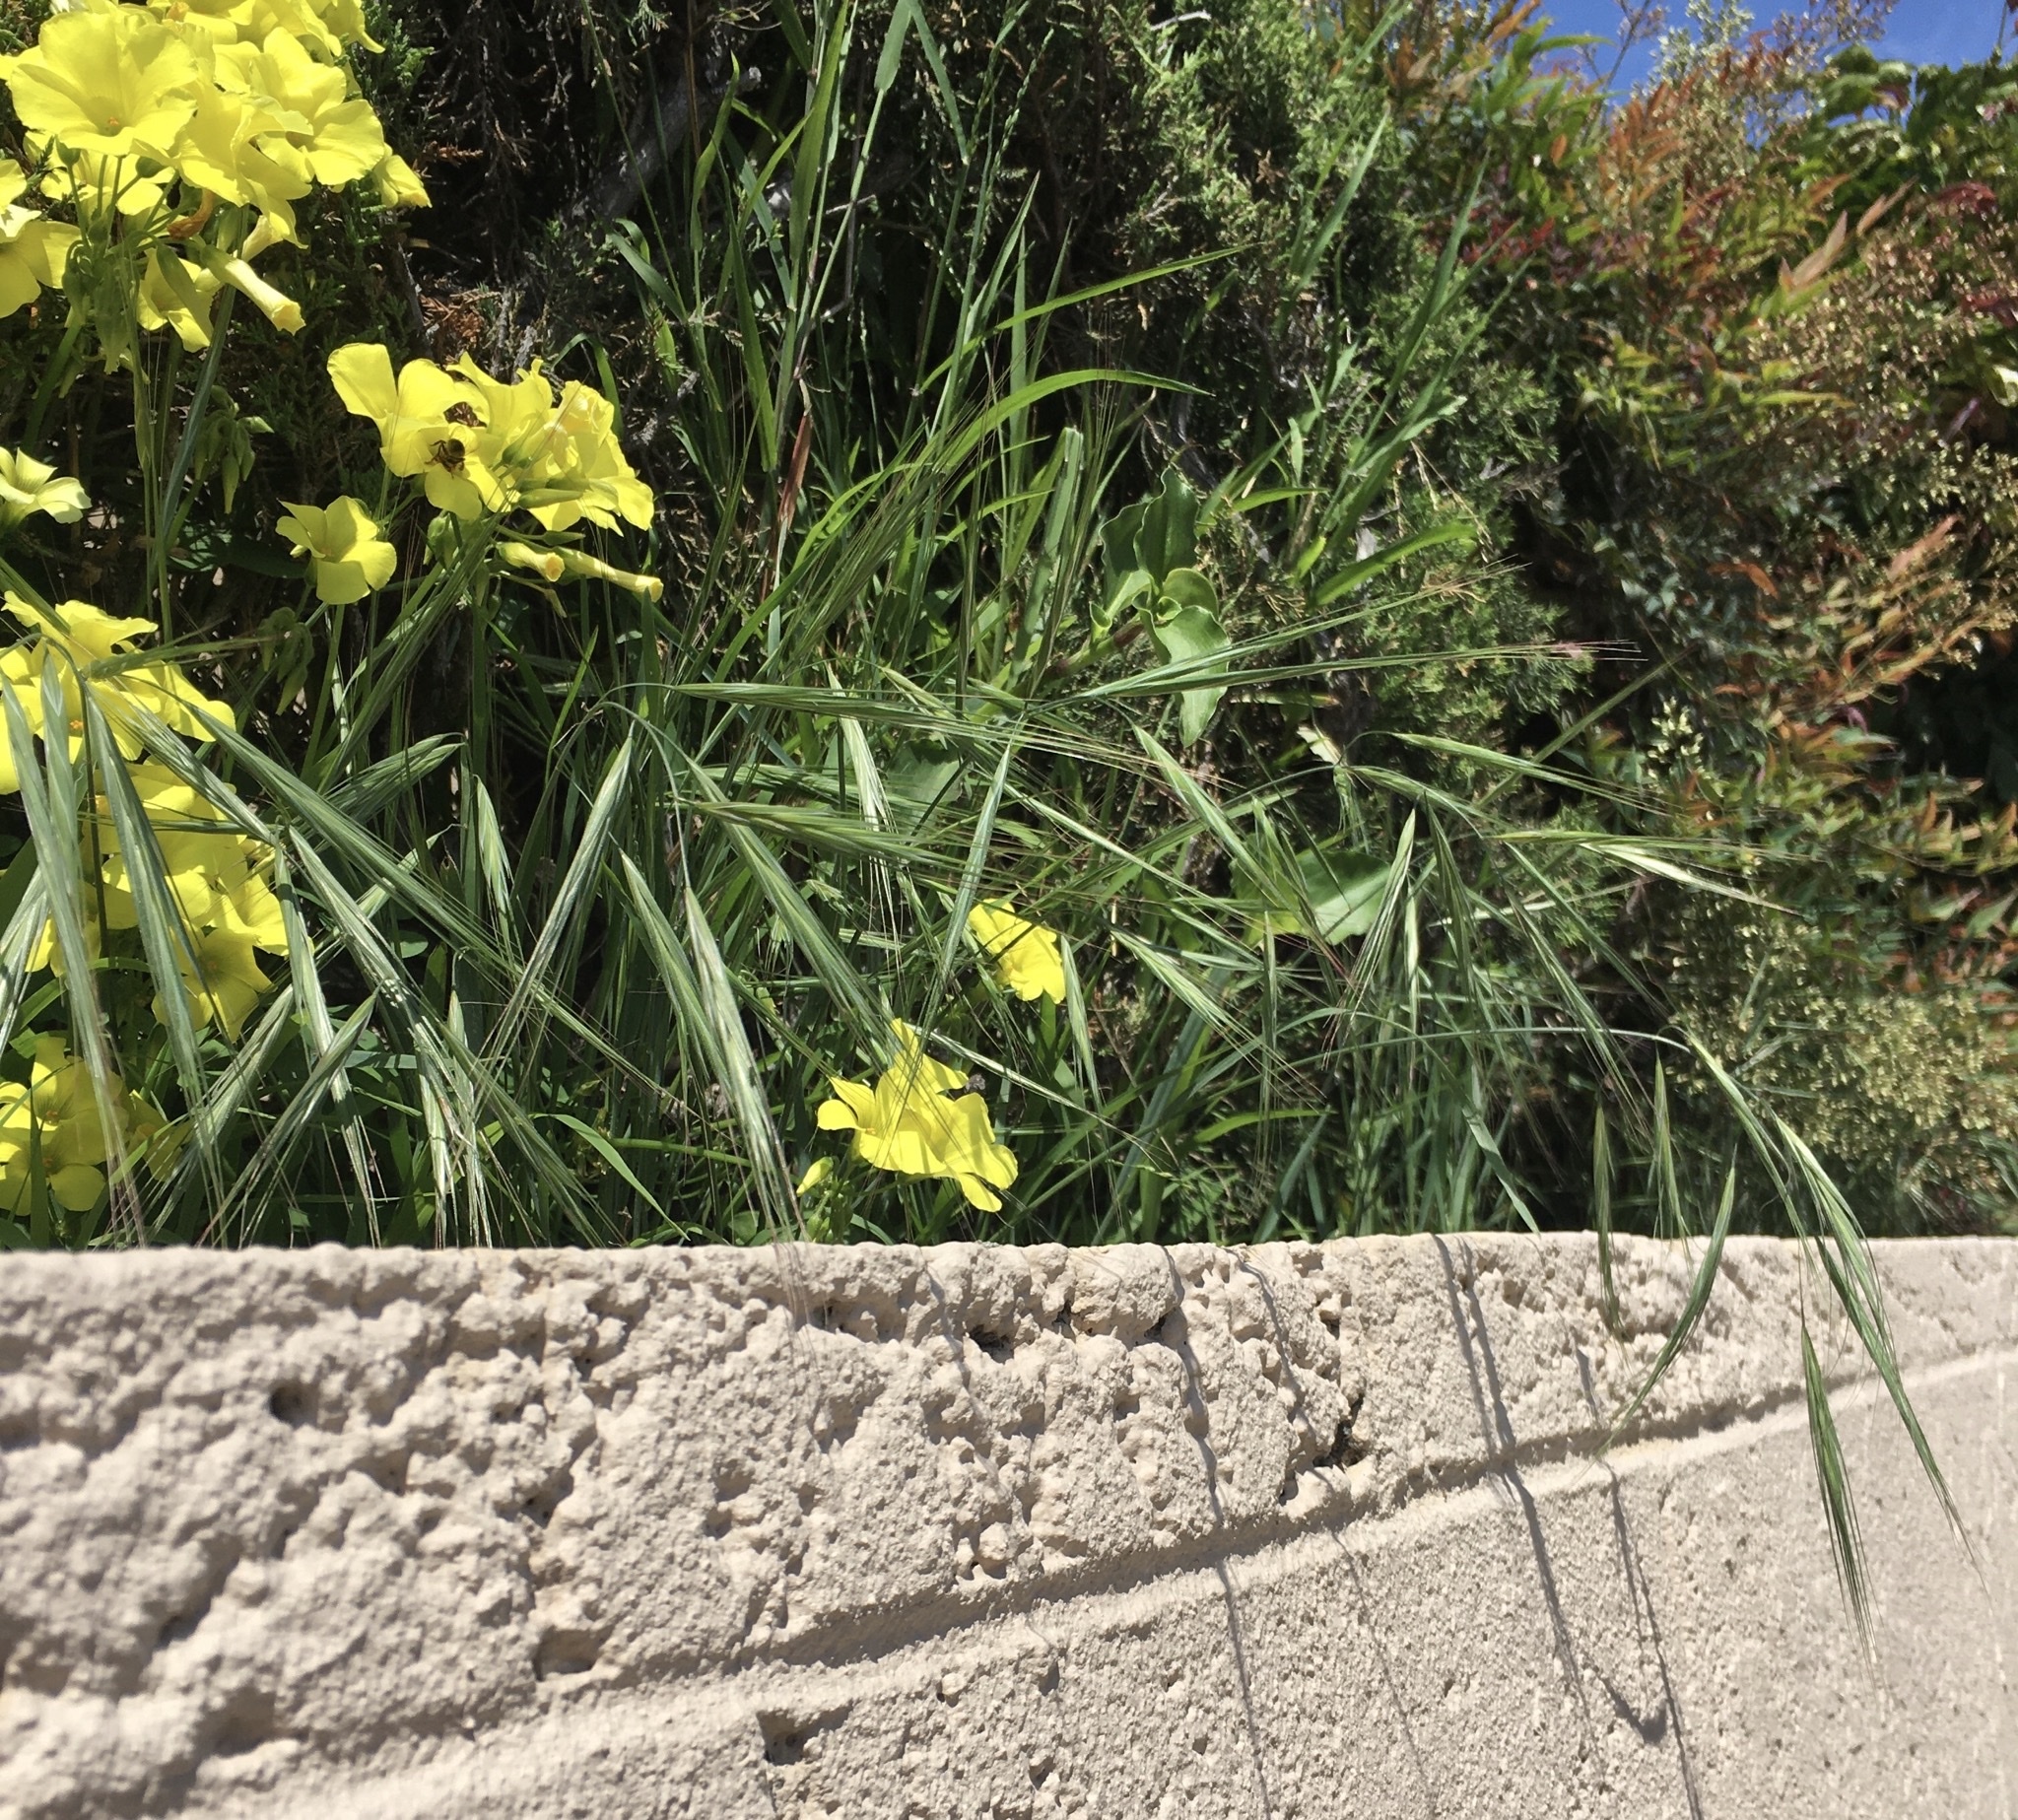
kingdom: Plantae
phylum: Tracheophyta
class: Liliopsida
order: Poales
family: Poaceae
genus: Bromus
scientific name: Bromus diandrus
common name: Ripgut brome
